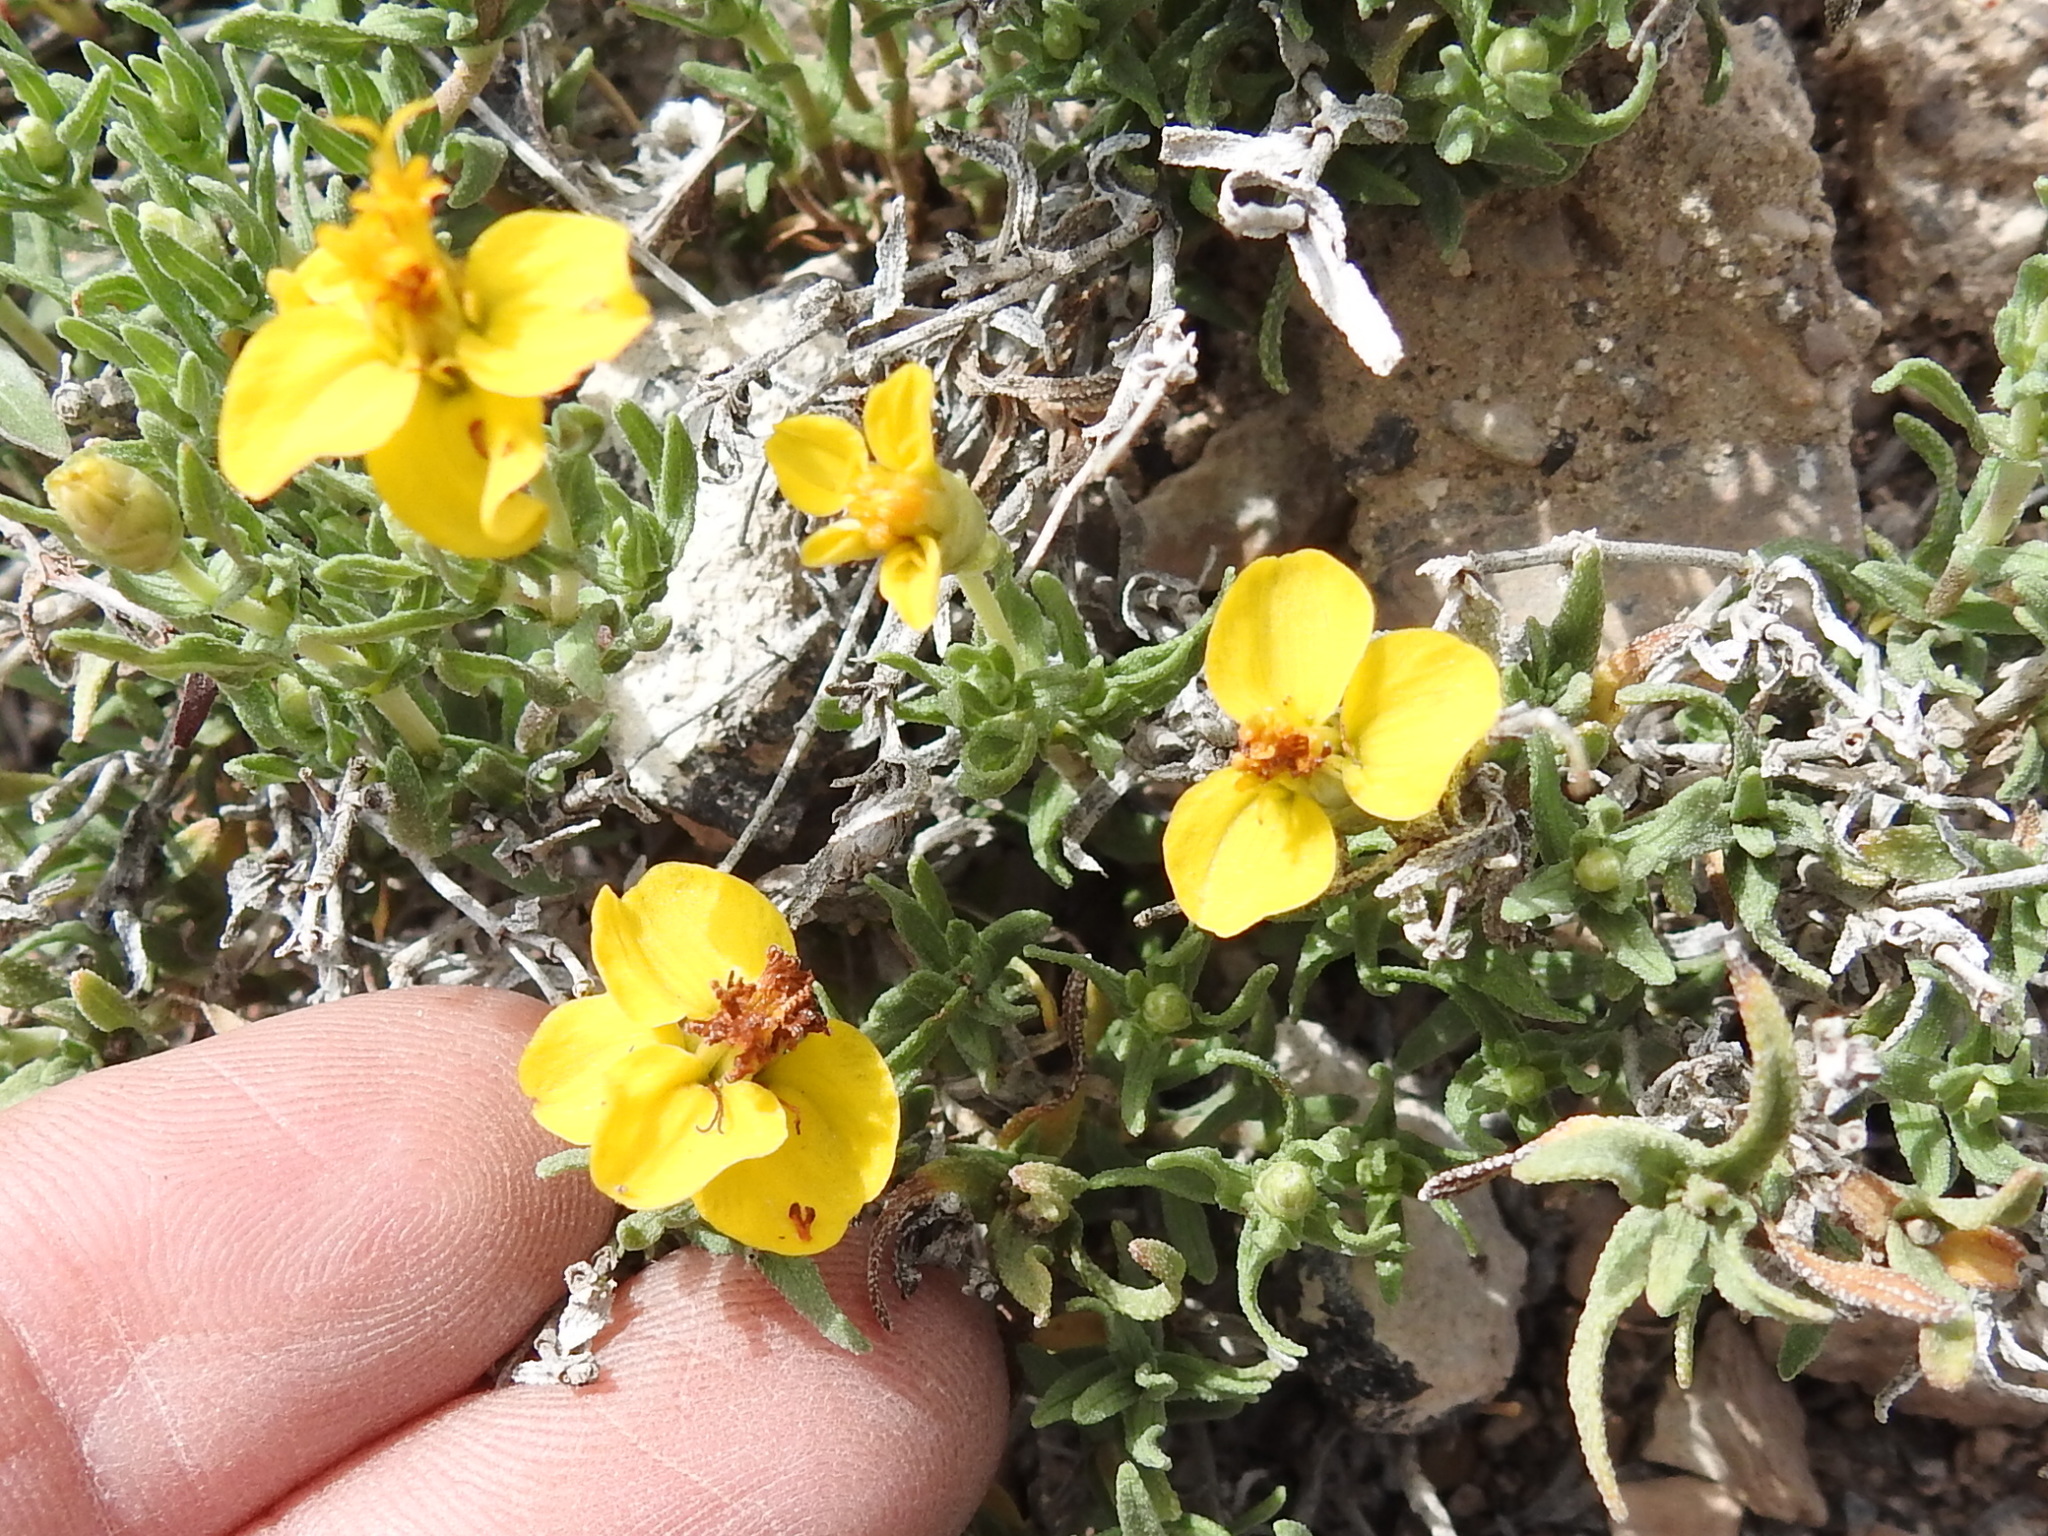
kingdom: Plantae
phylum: Tracheophyta
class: Magnoliopsida
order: Asterales
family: Asteraceae
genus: Zinnia
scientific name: Zinnia grandiflora
